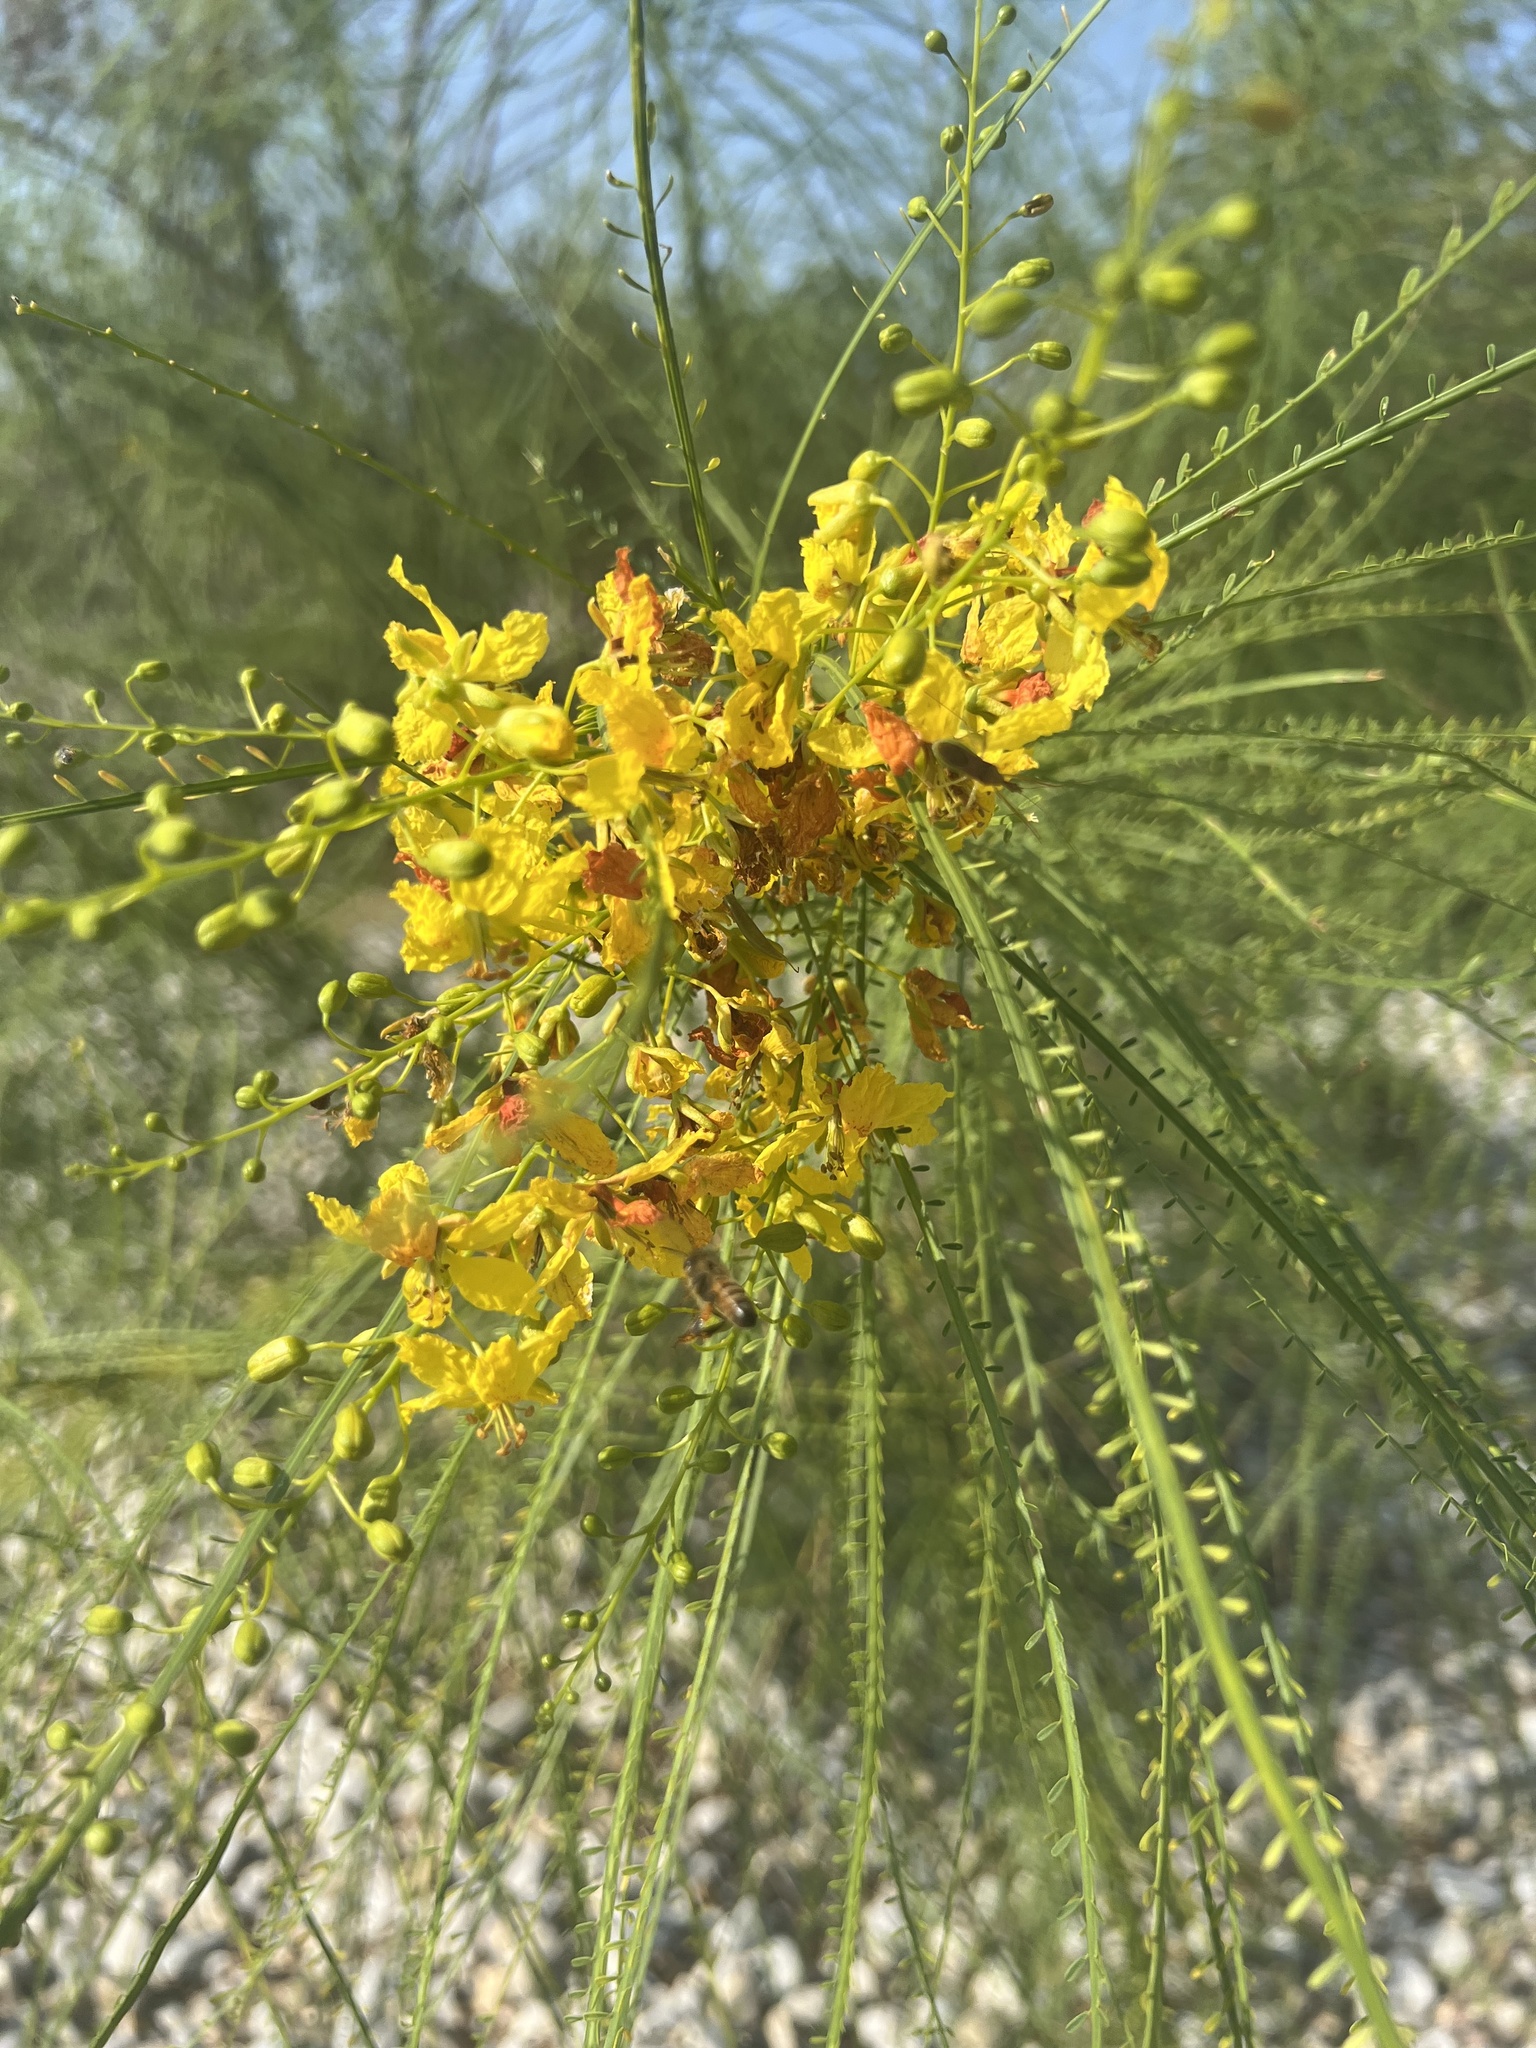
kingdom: Plantae
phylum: Tracheophyta
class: Magnoliopsida
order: Fabales
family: Fabaceae
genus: Parkinsonia
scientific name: Parkinsonia aculeata
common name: Jerusalem thorn
